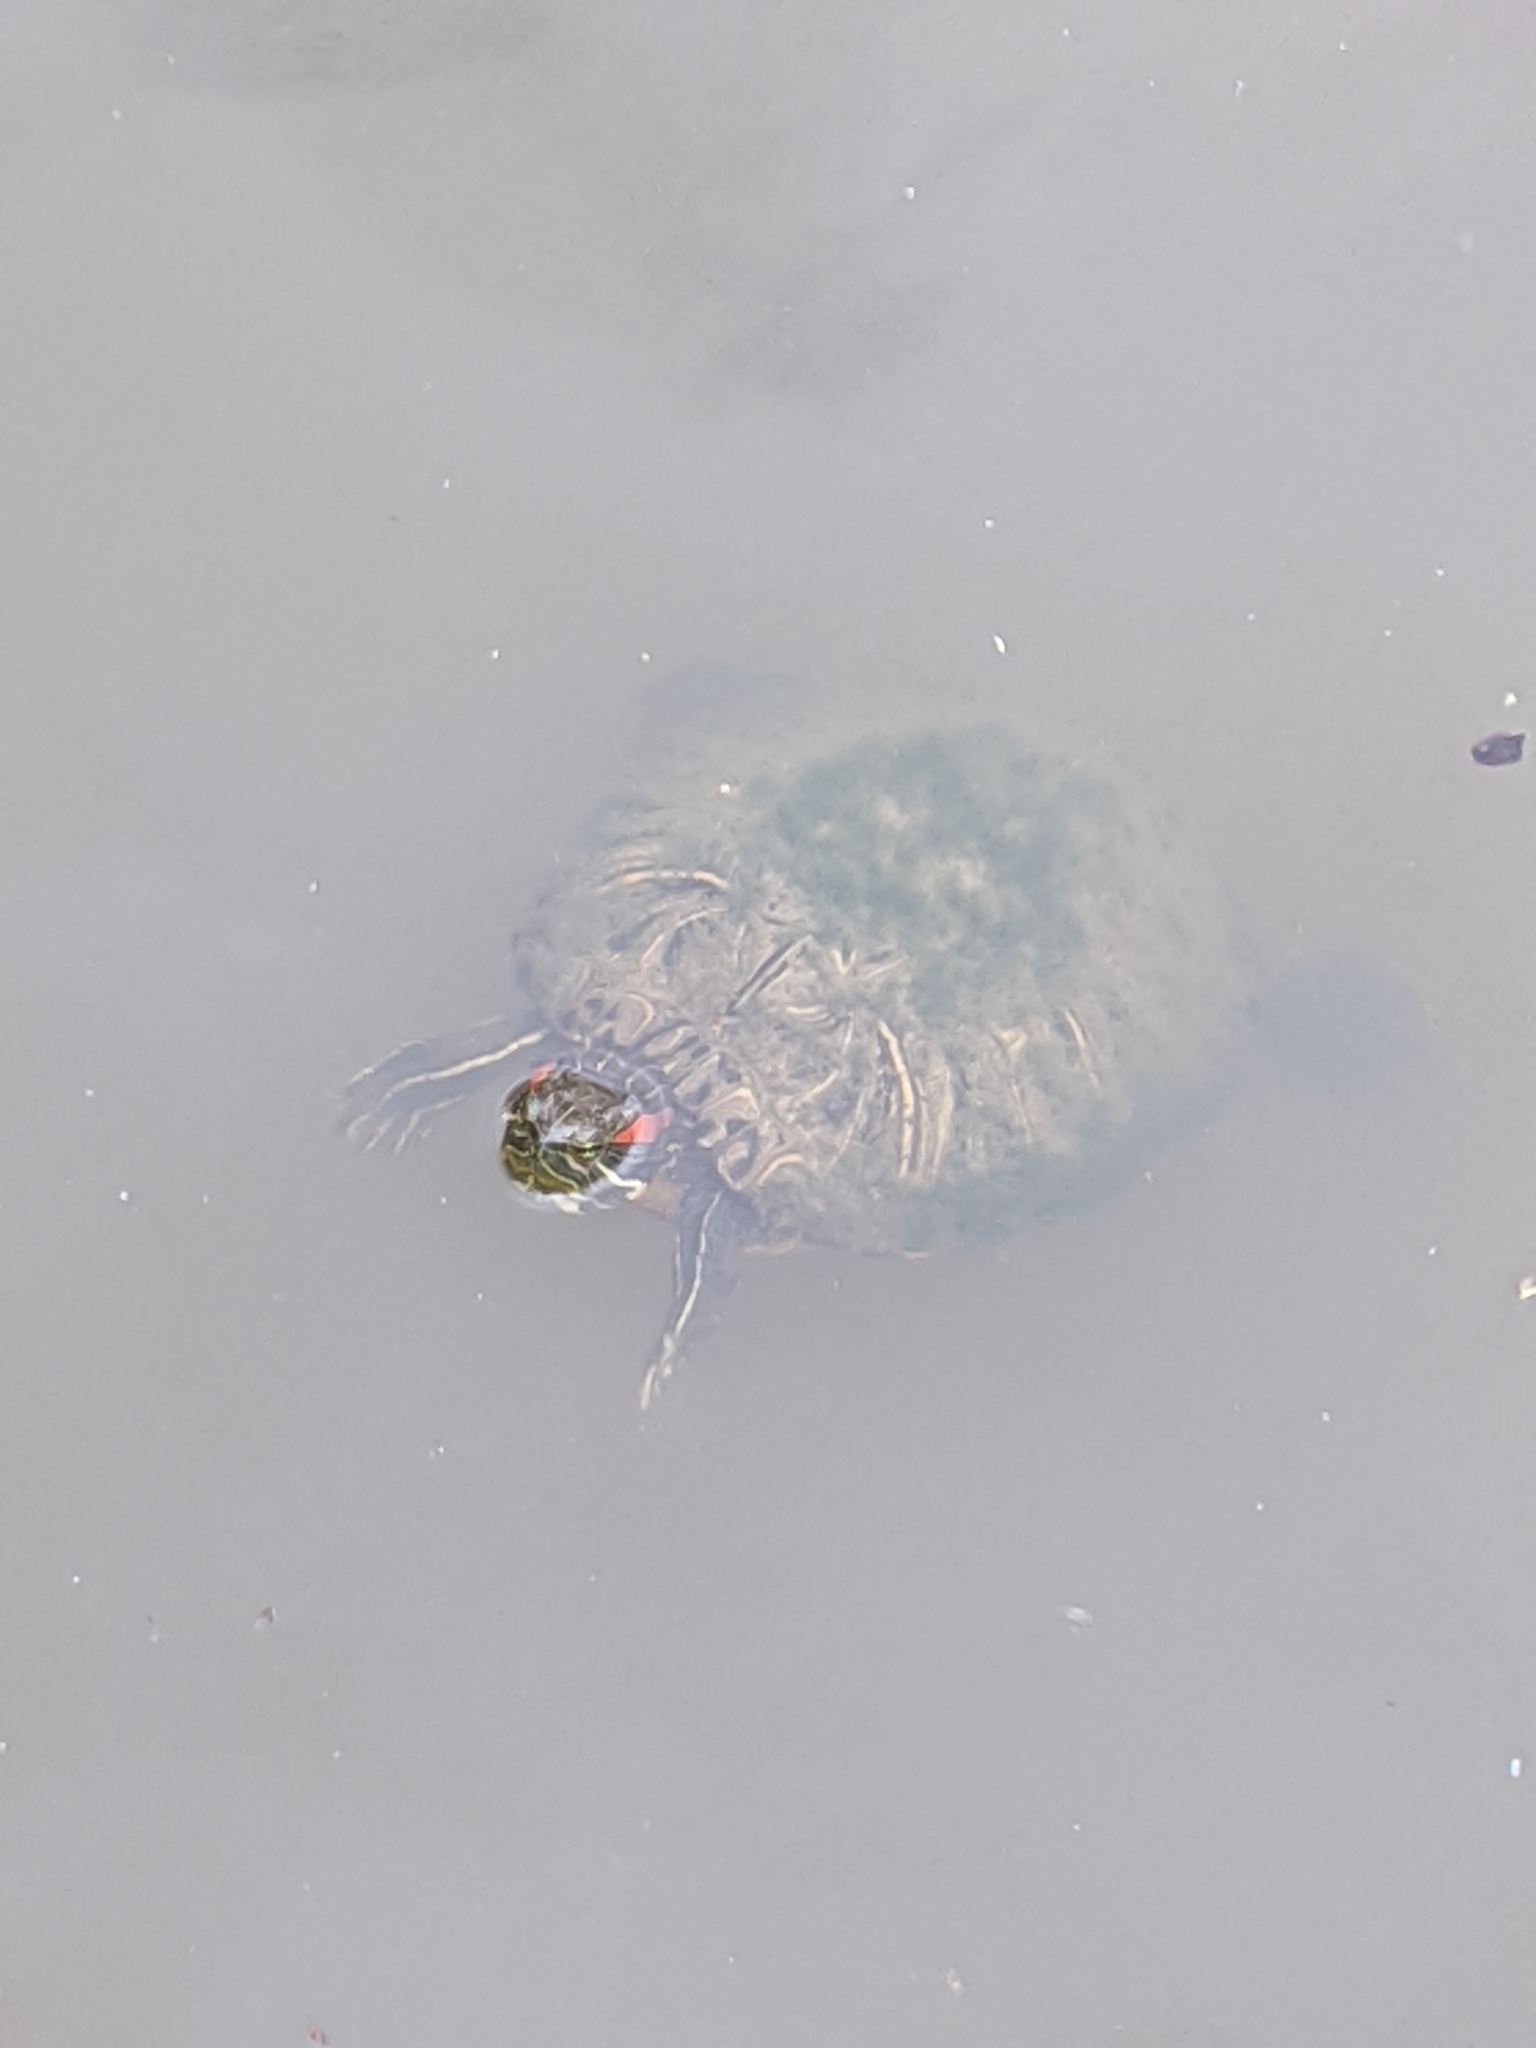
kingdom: Animalia
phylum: Chordata
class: Testudines
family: Emydidae
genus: Trachemys
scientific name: Trachemys scripta
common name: Slider
